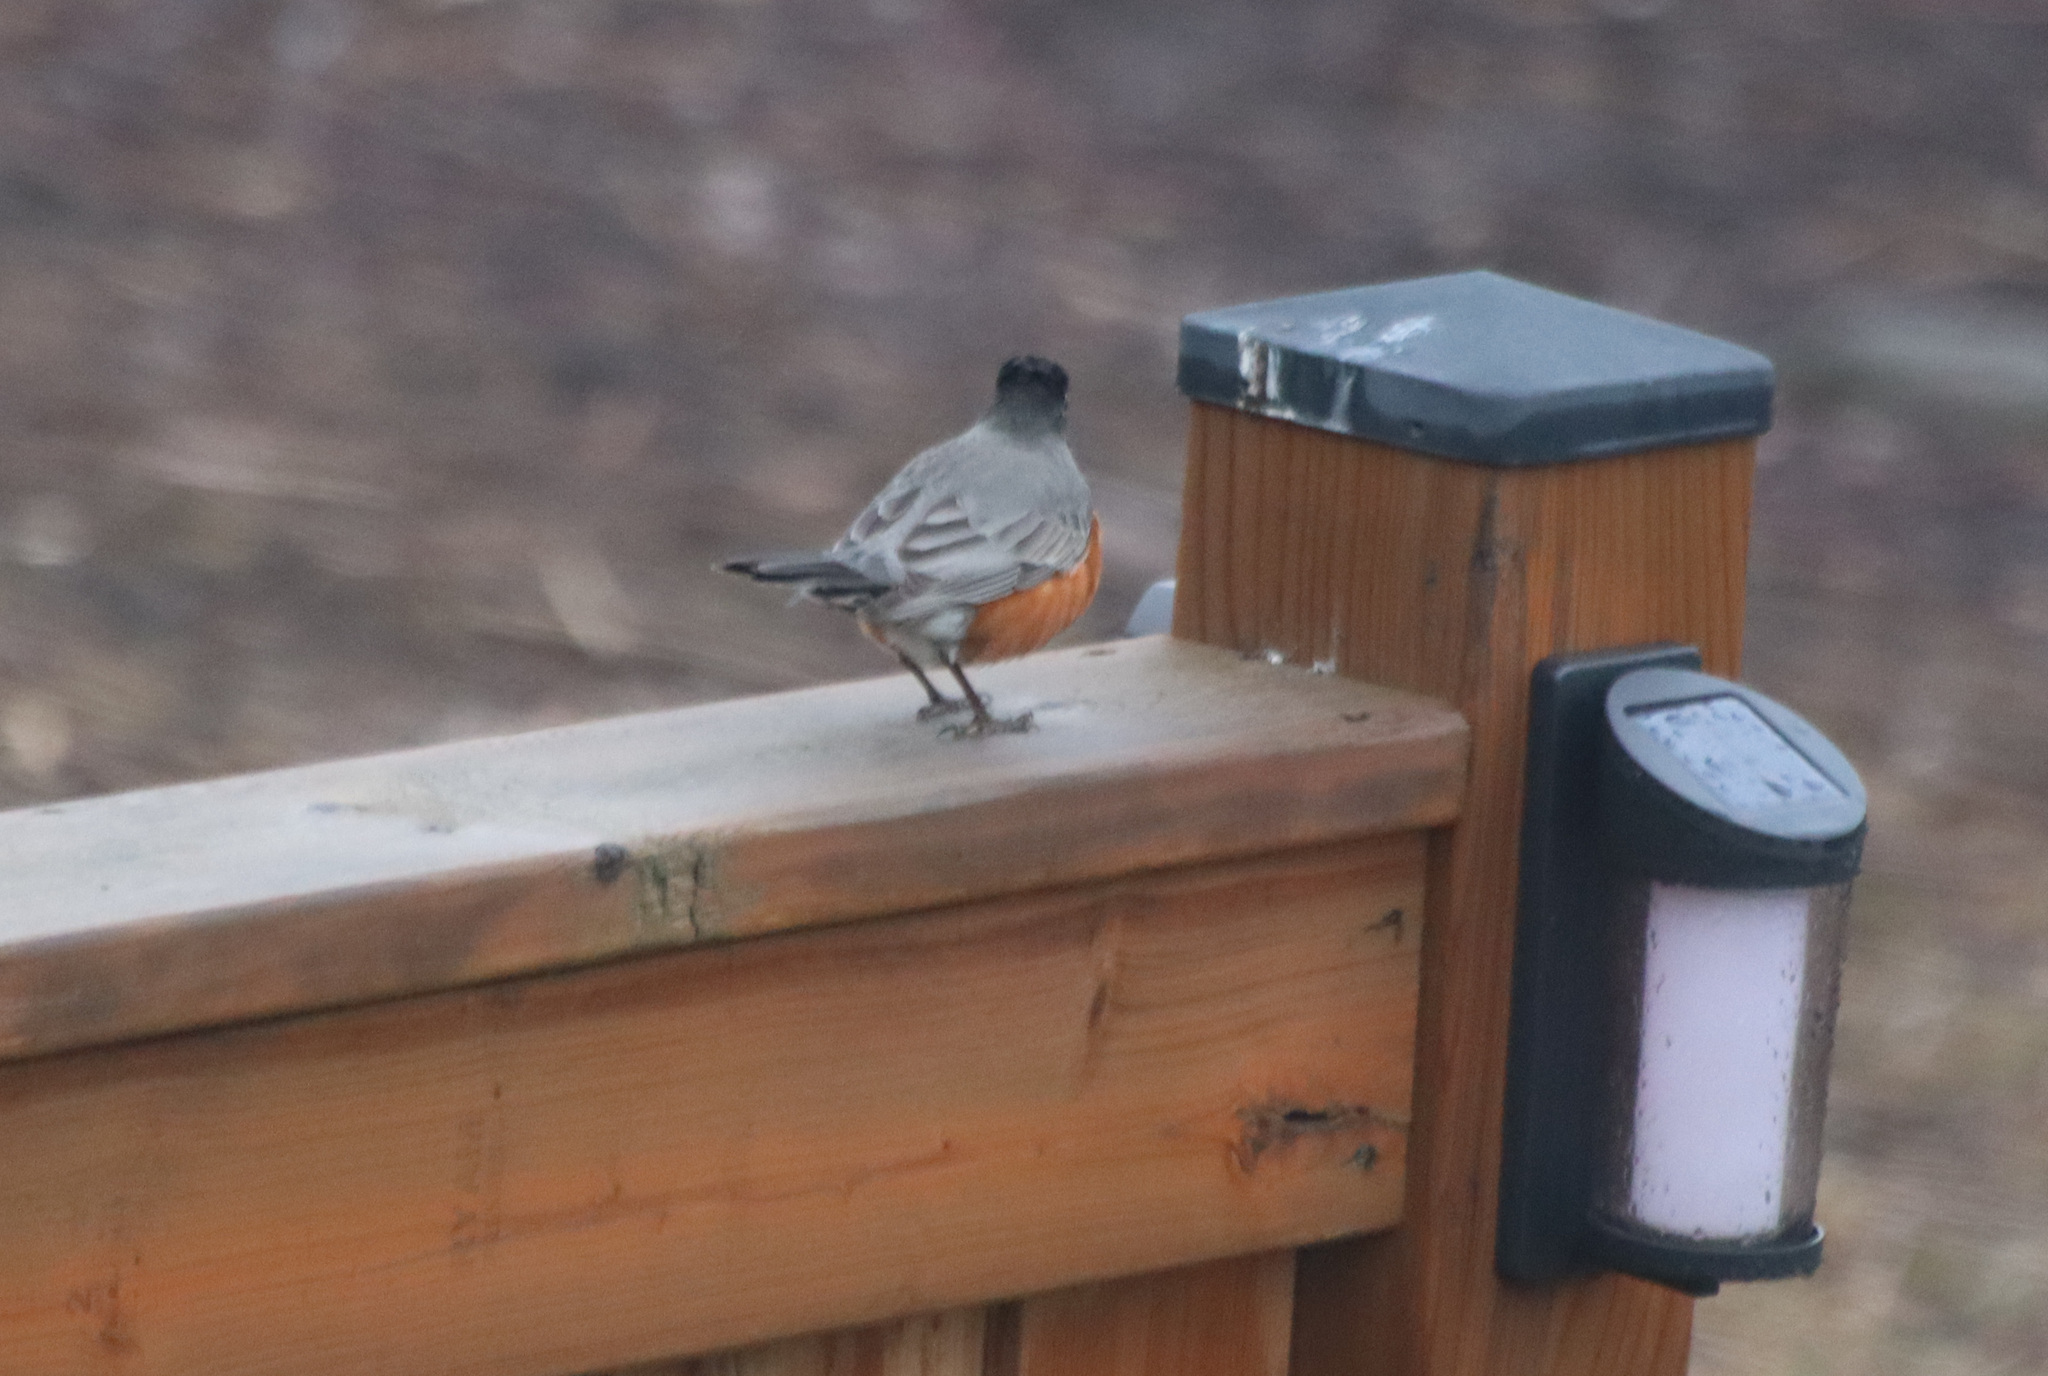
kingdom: Animalia
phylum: Chordata
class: Aves
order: Passeriformes
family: Turdidae
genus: Turdus
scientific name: Turdus migratorius
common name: American robin
